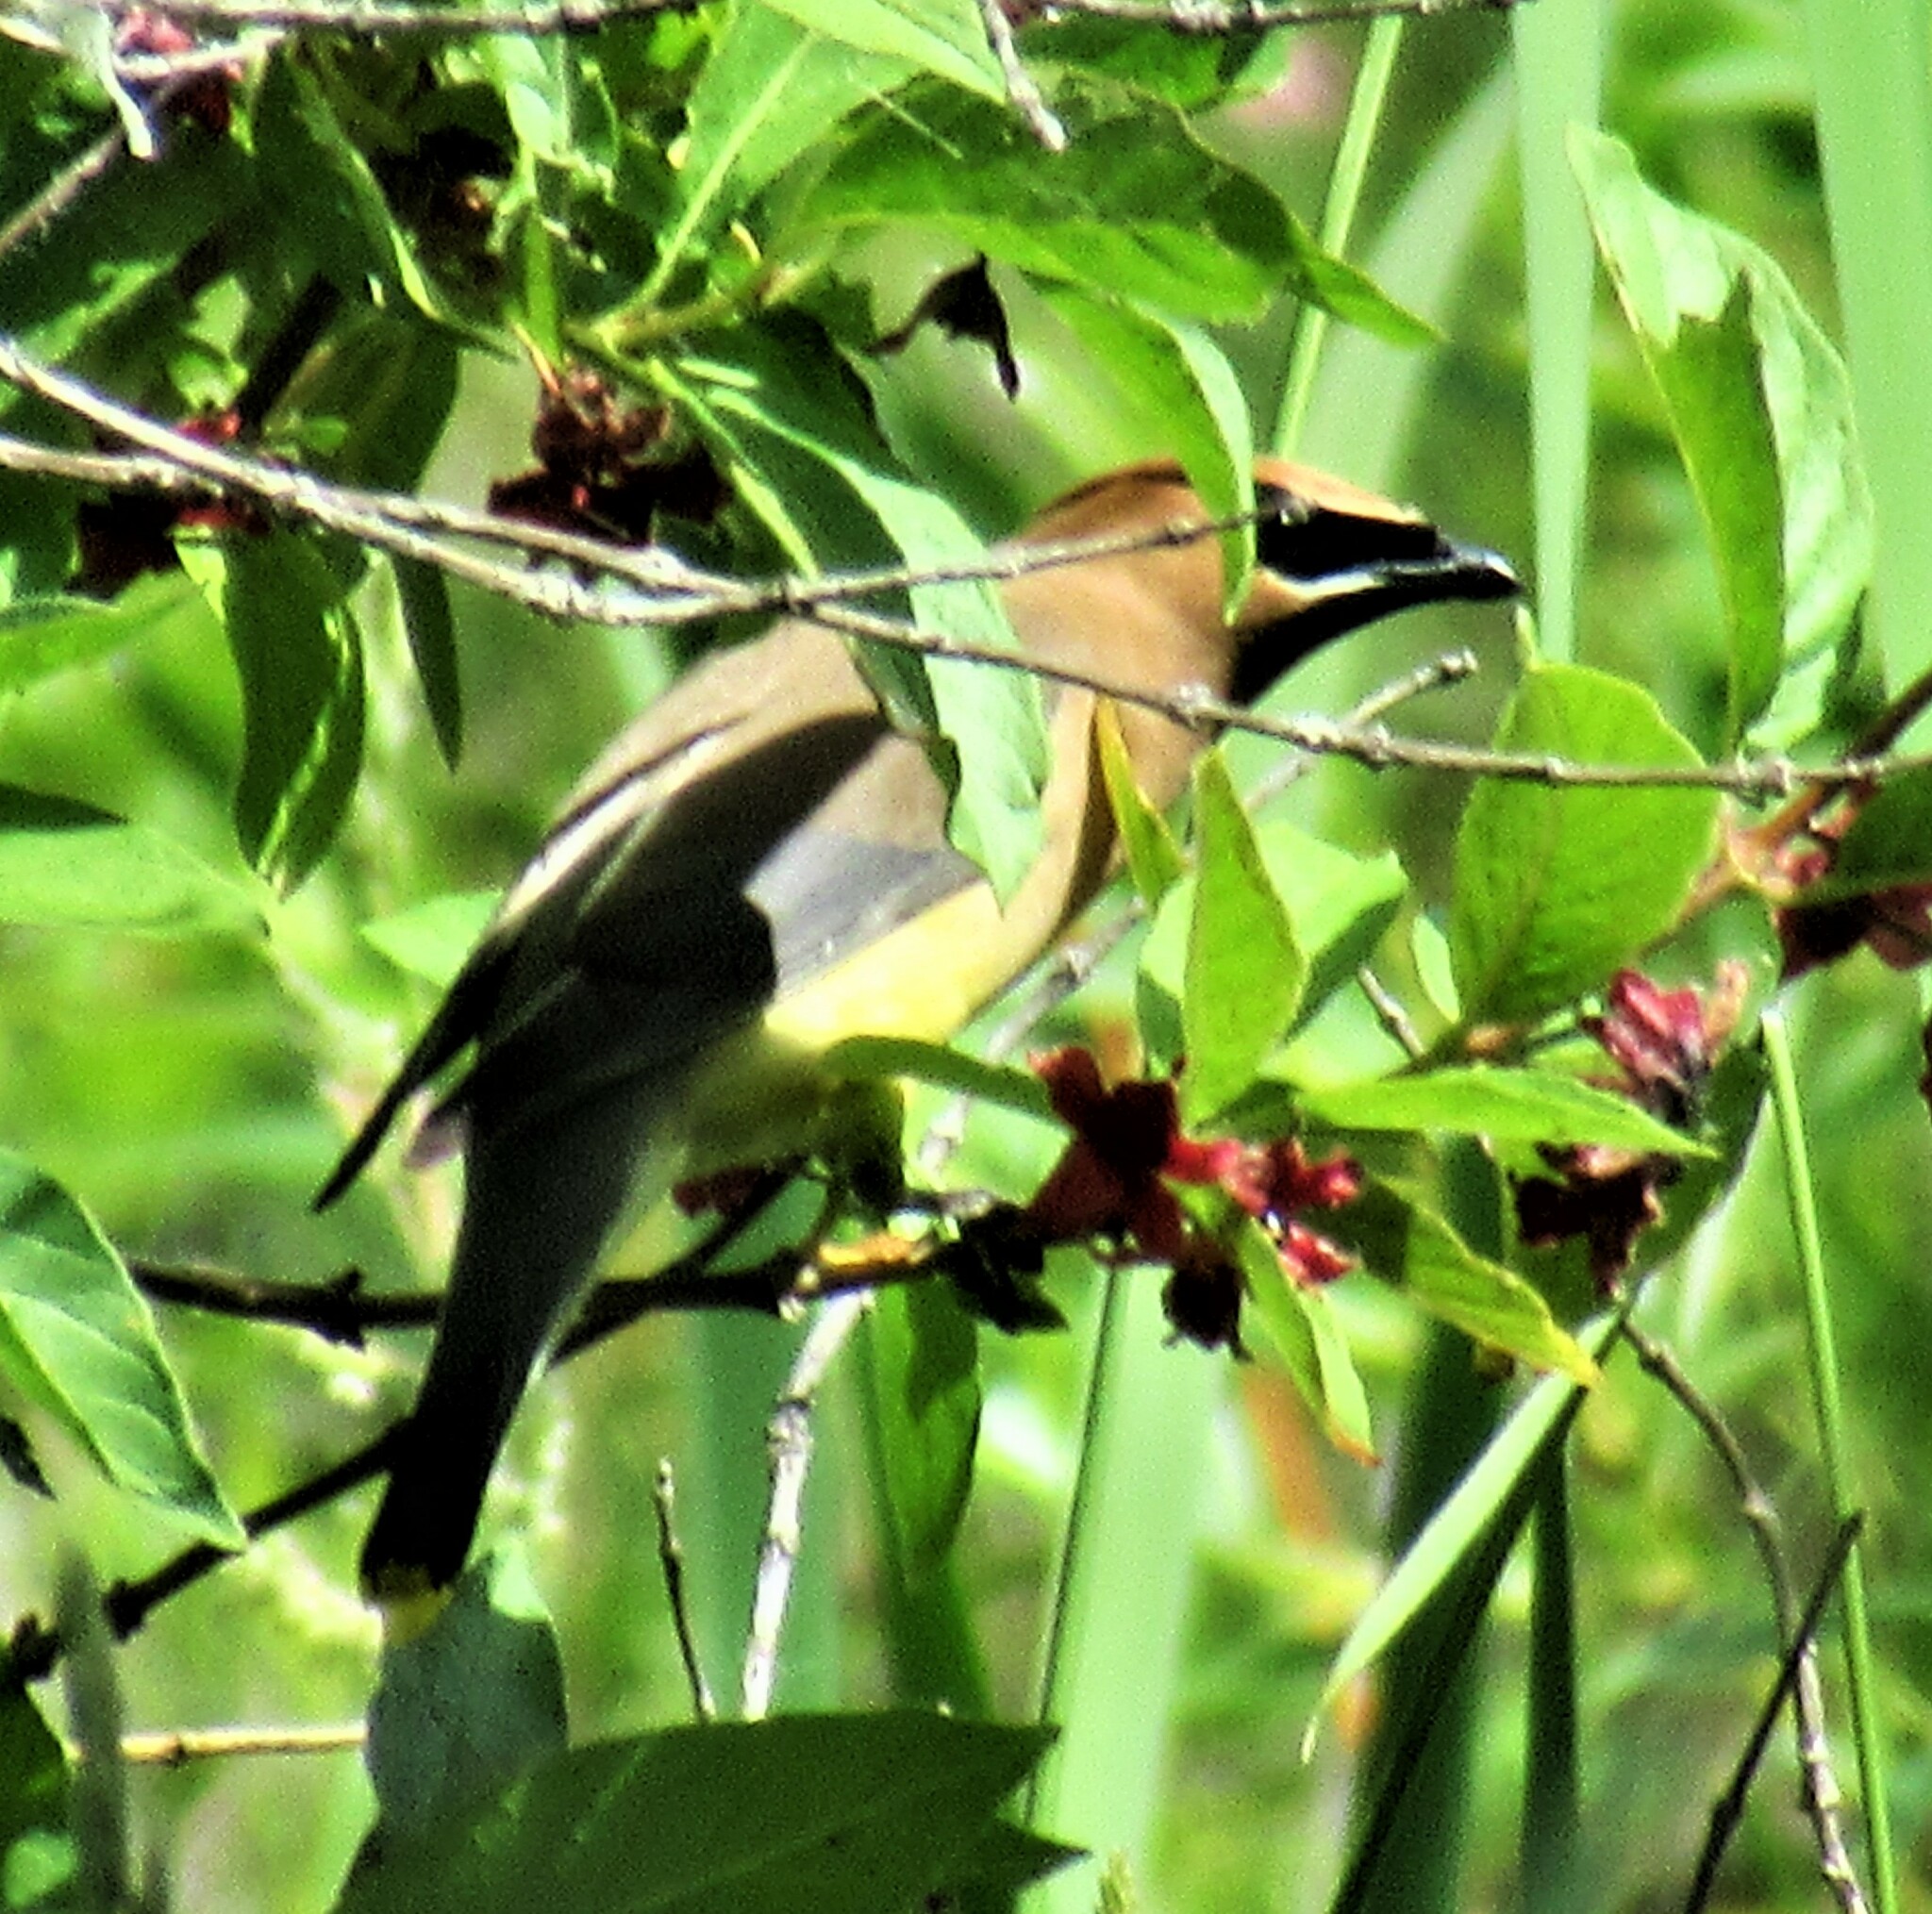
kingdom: Animalia
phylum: Chordata
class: Aves
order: Passeriformes
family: Bombycillidae
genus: Bombycilla
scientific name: Bombycilla cedrorum
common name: Cedar waxwing
